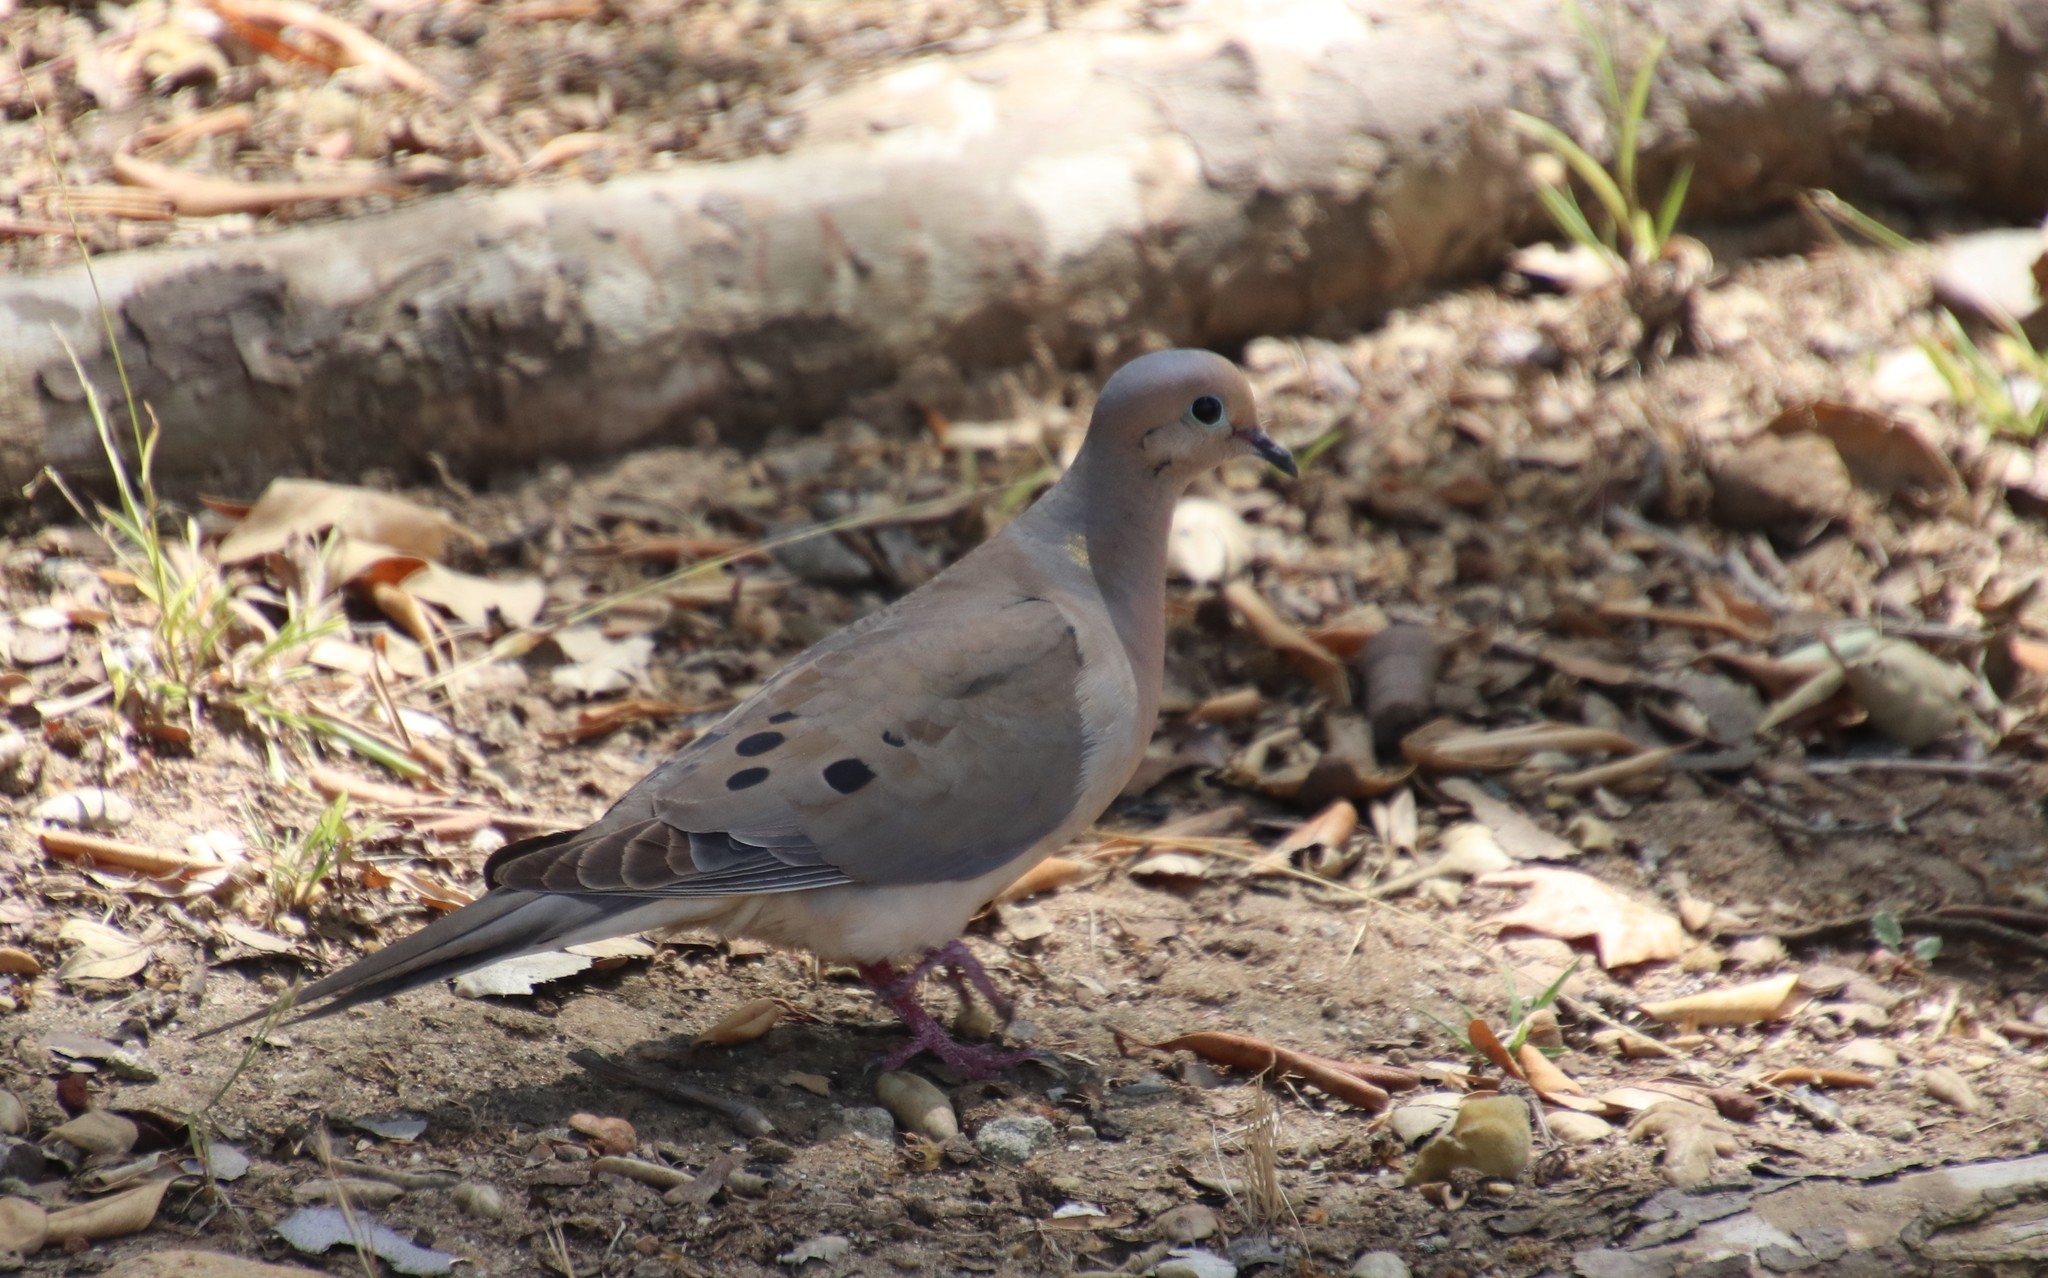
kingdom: Animalia
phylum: Chordata
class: Aves
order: Columbiformes
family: Columbidae
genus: Zenaida
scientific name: Zenaida macroura
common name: Mourning dove
